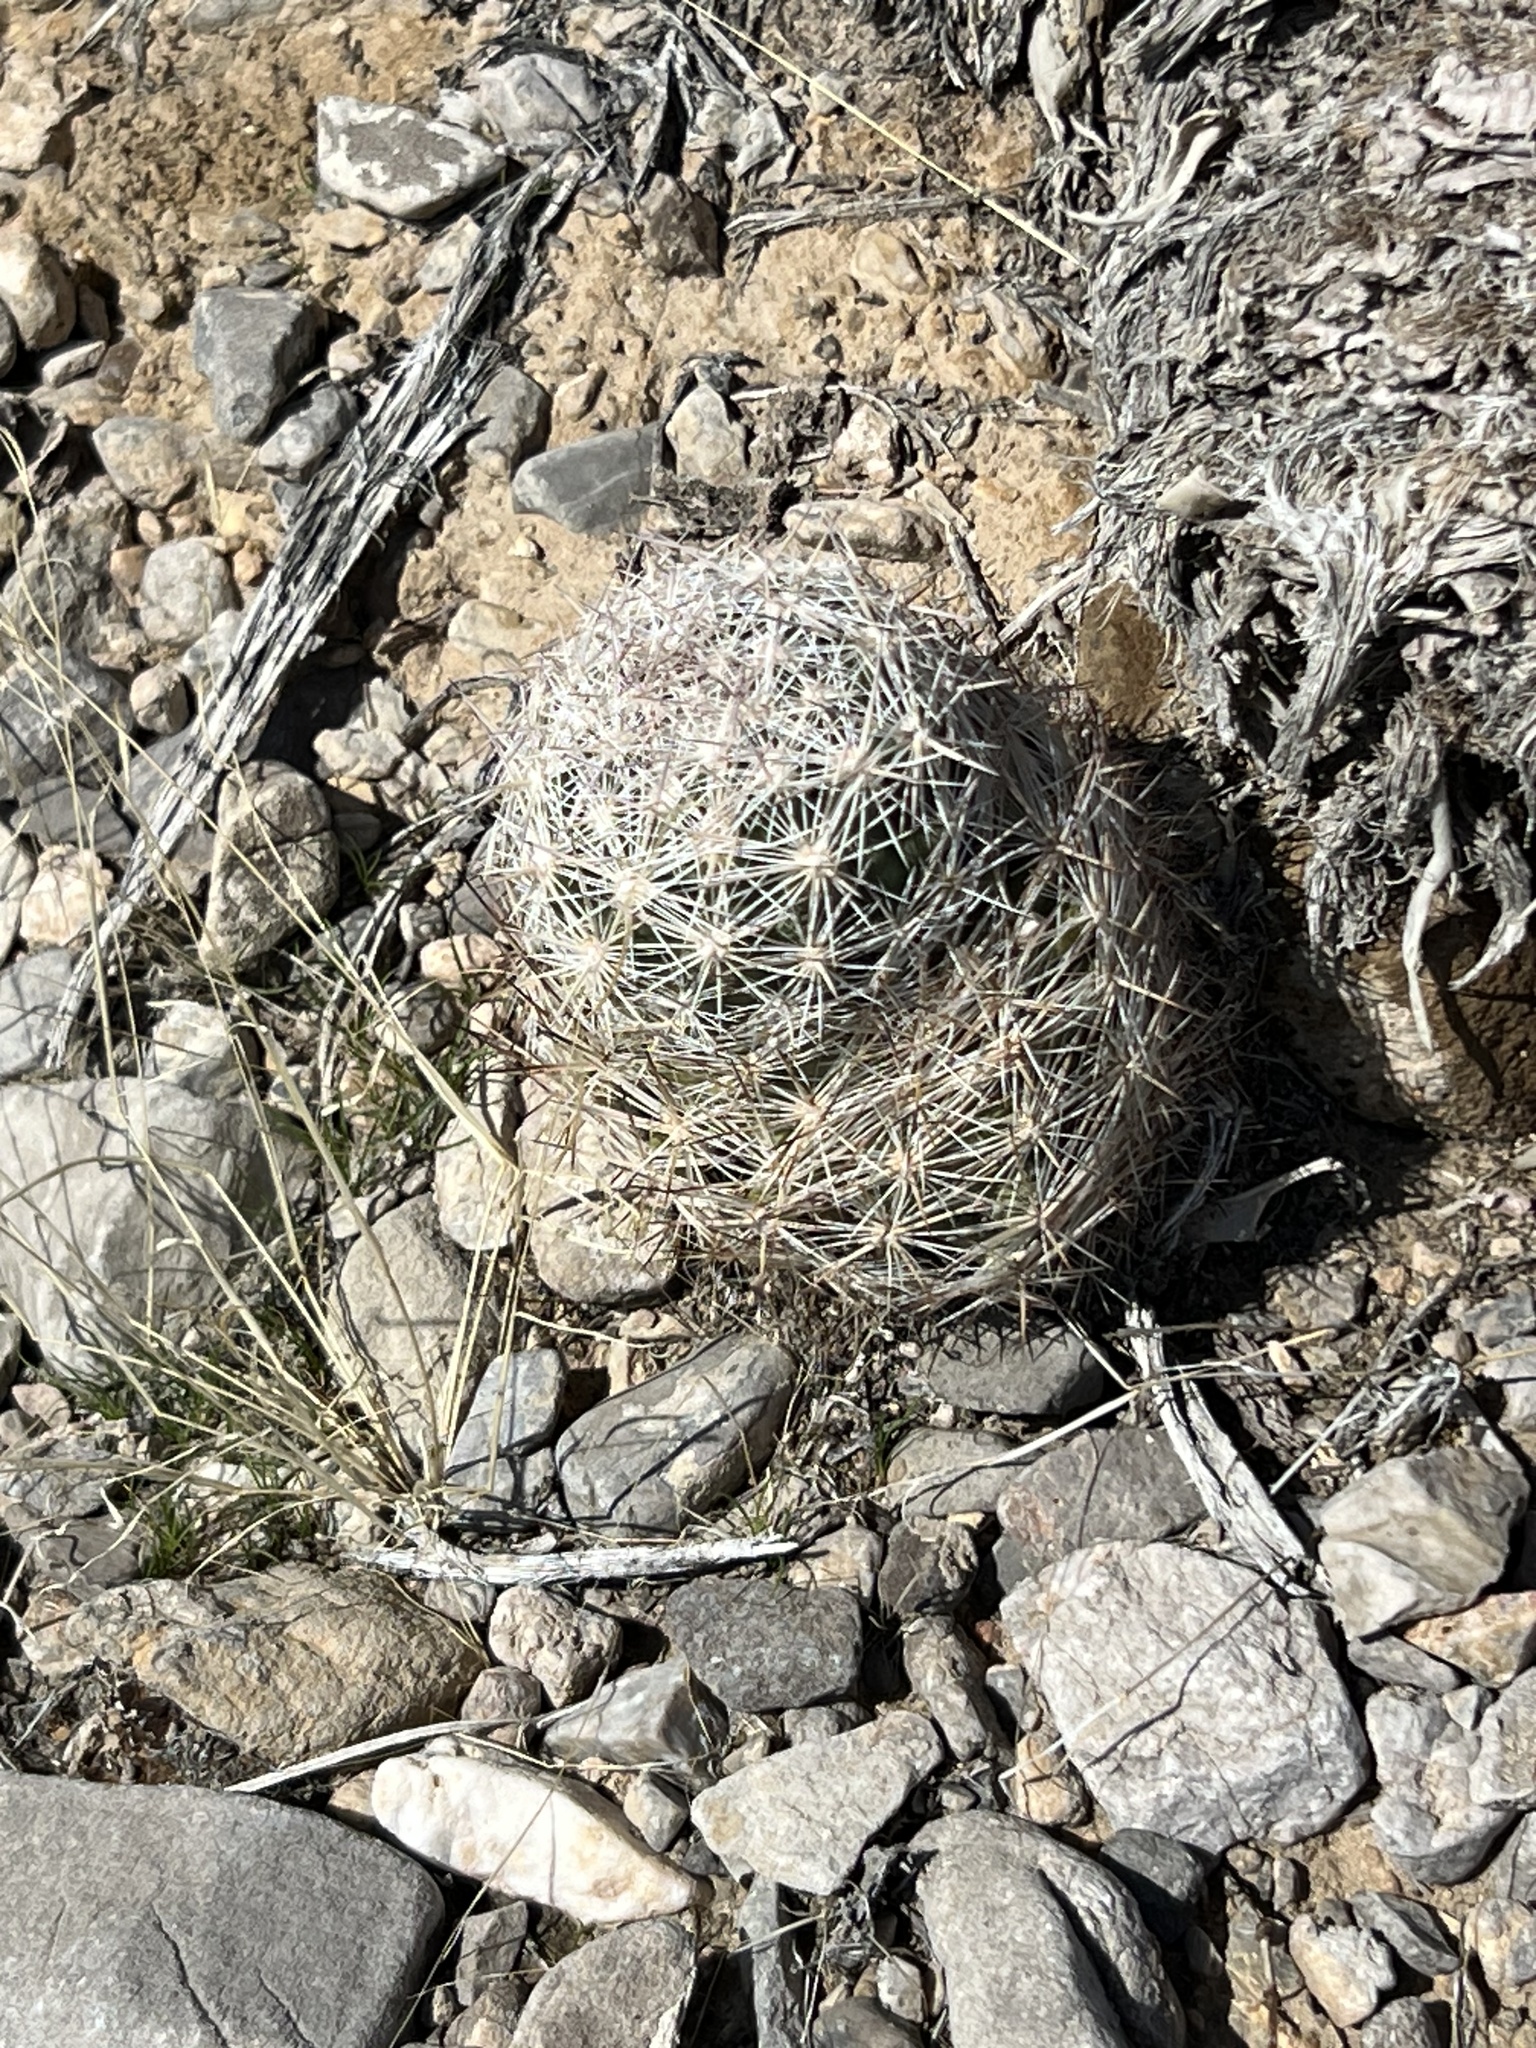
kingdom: Plantae
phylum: Tracheophyta
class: Magnoliopsida
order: Caryophyllales
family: Cactaceae
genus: Pelecyphora
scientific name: Pelecyphora dasyacantha
